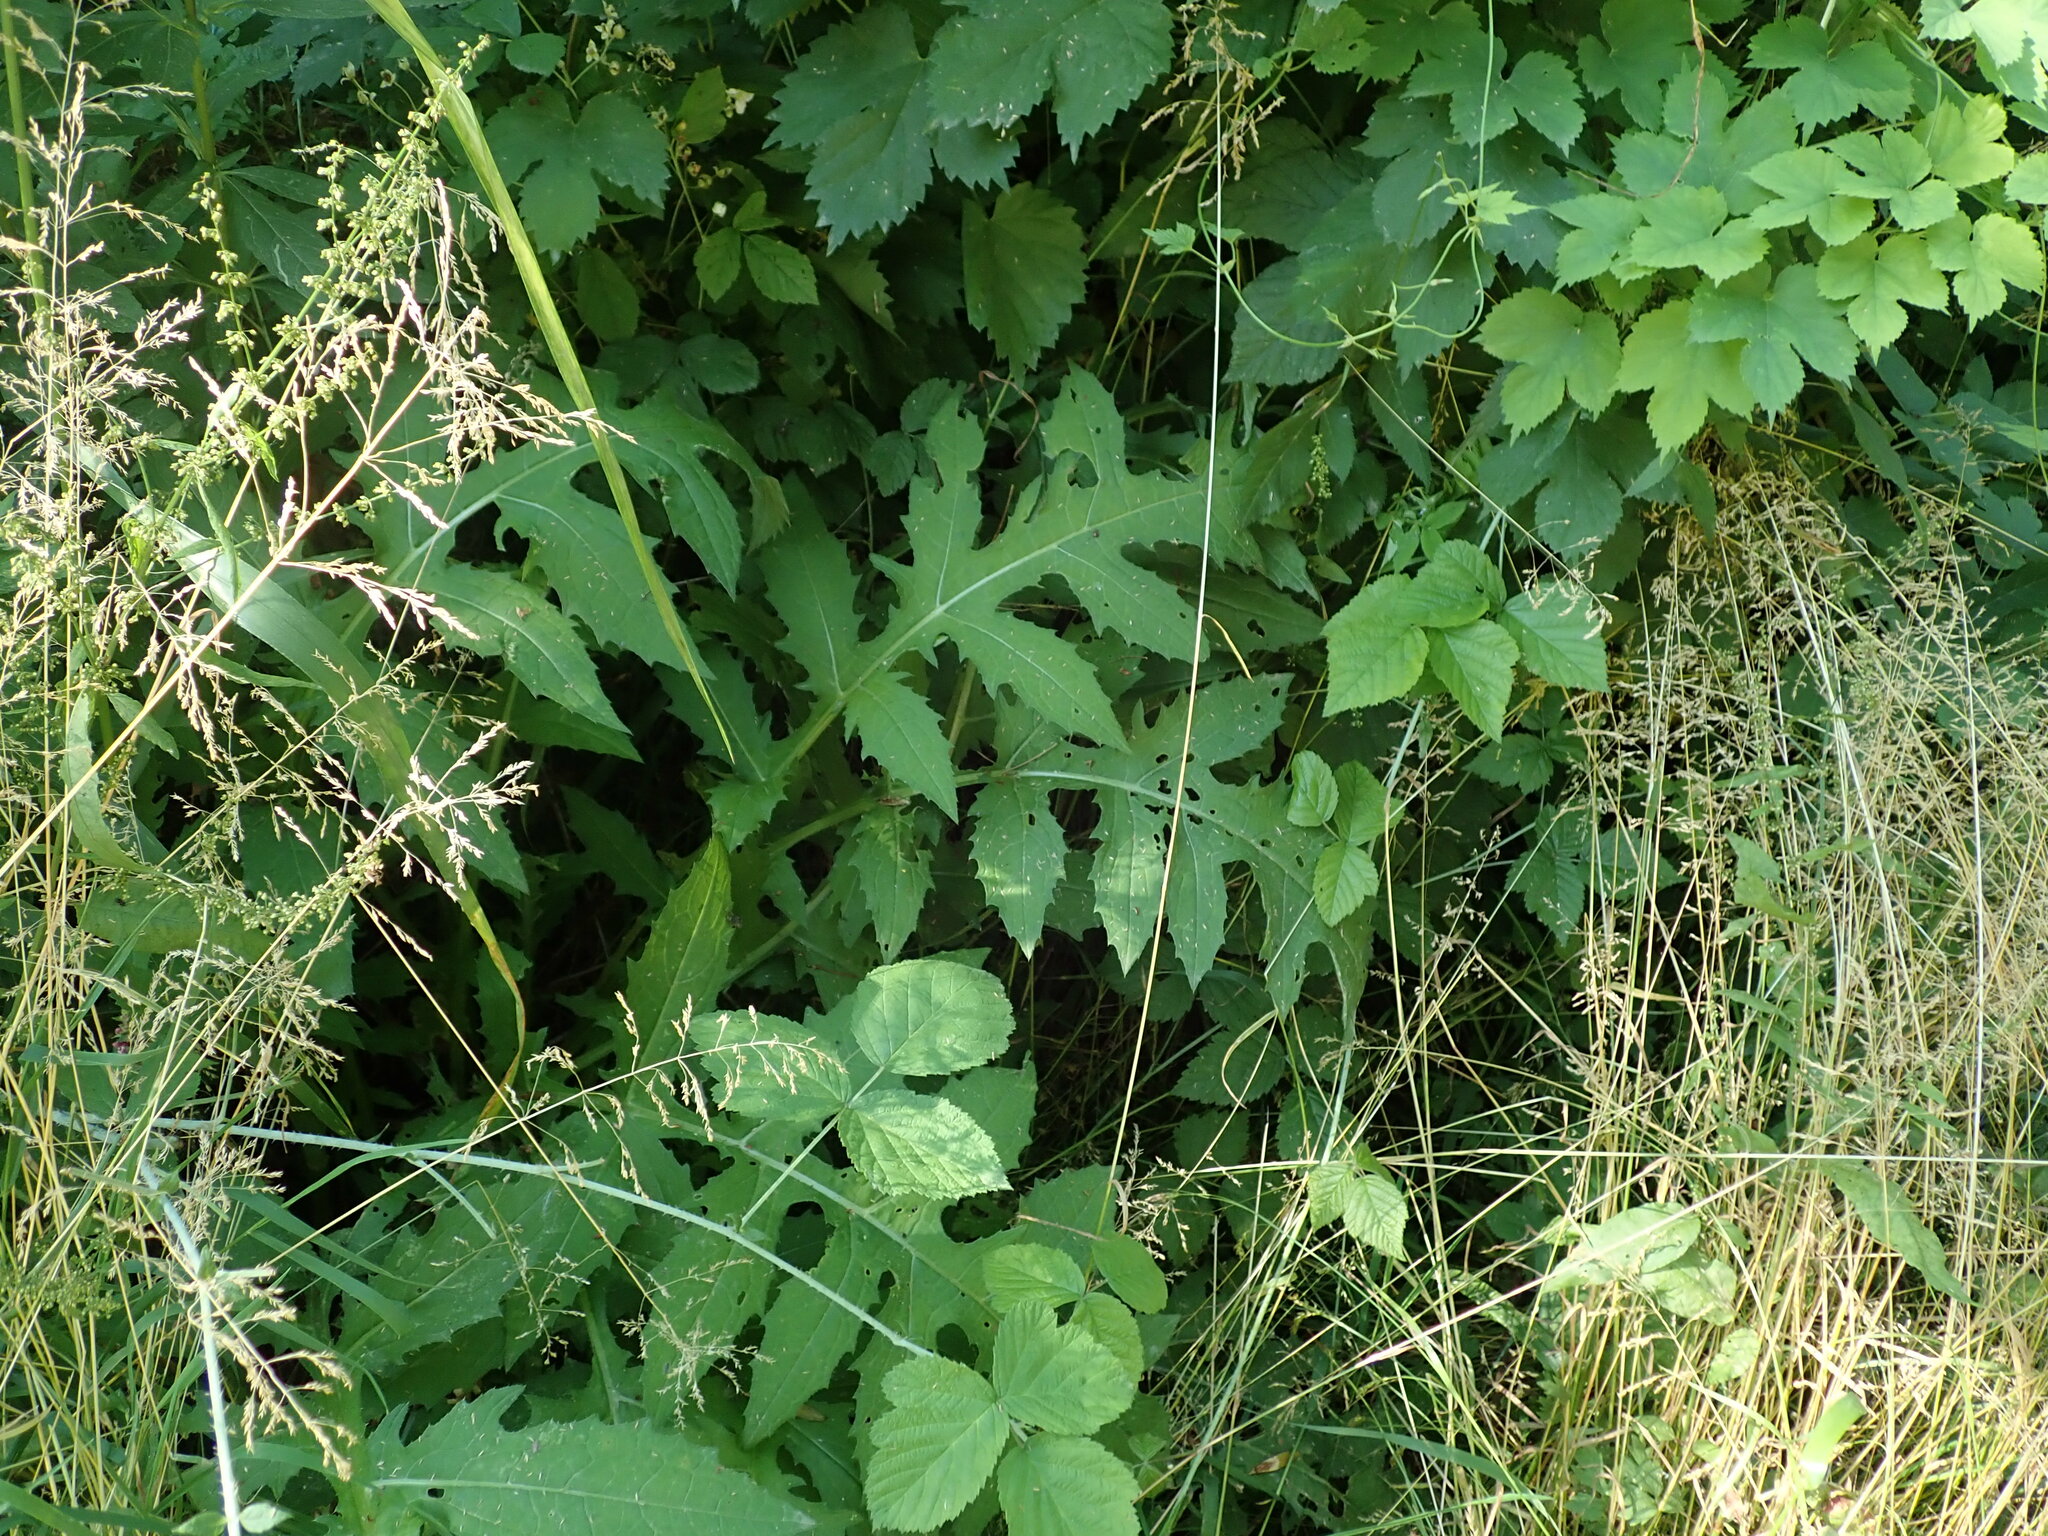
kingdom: Plantae
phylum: Tracheophyta
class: Magnoliopsida
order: Asterales
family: Asteraceae
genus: Cirsium
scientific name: Cirsium oleraceum
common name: Cabbage thistle
